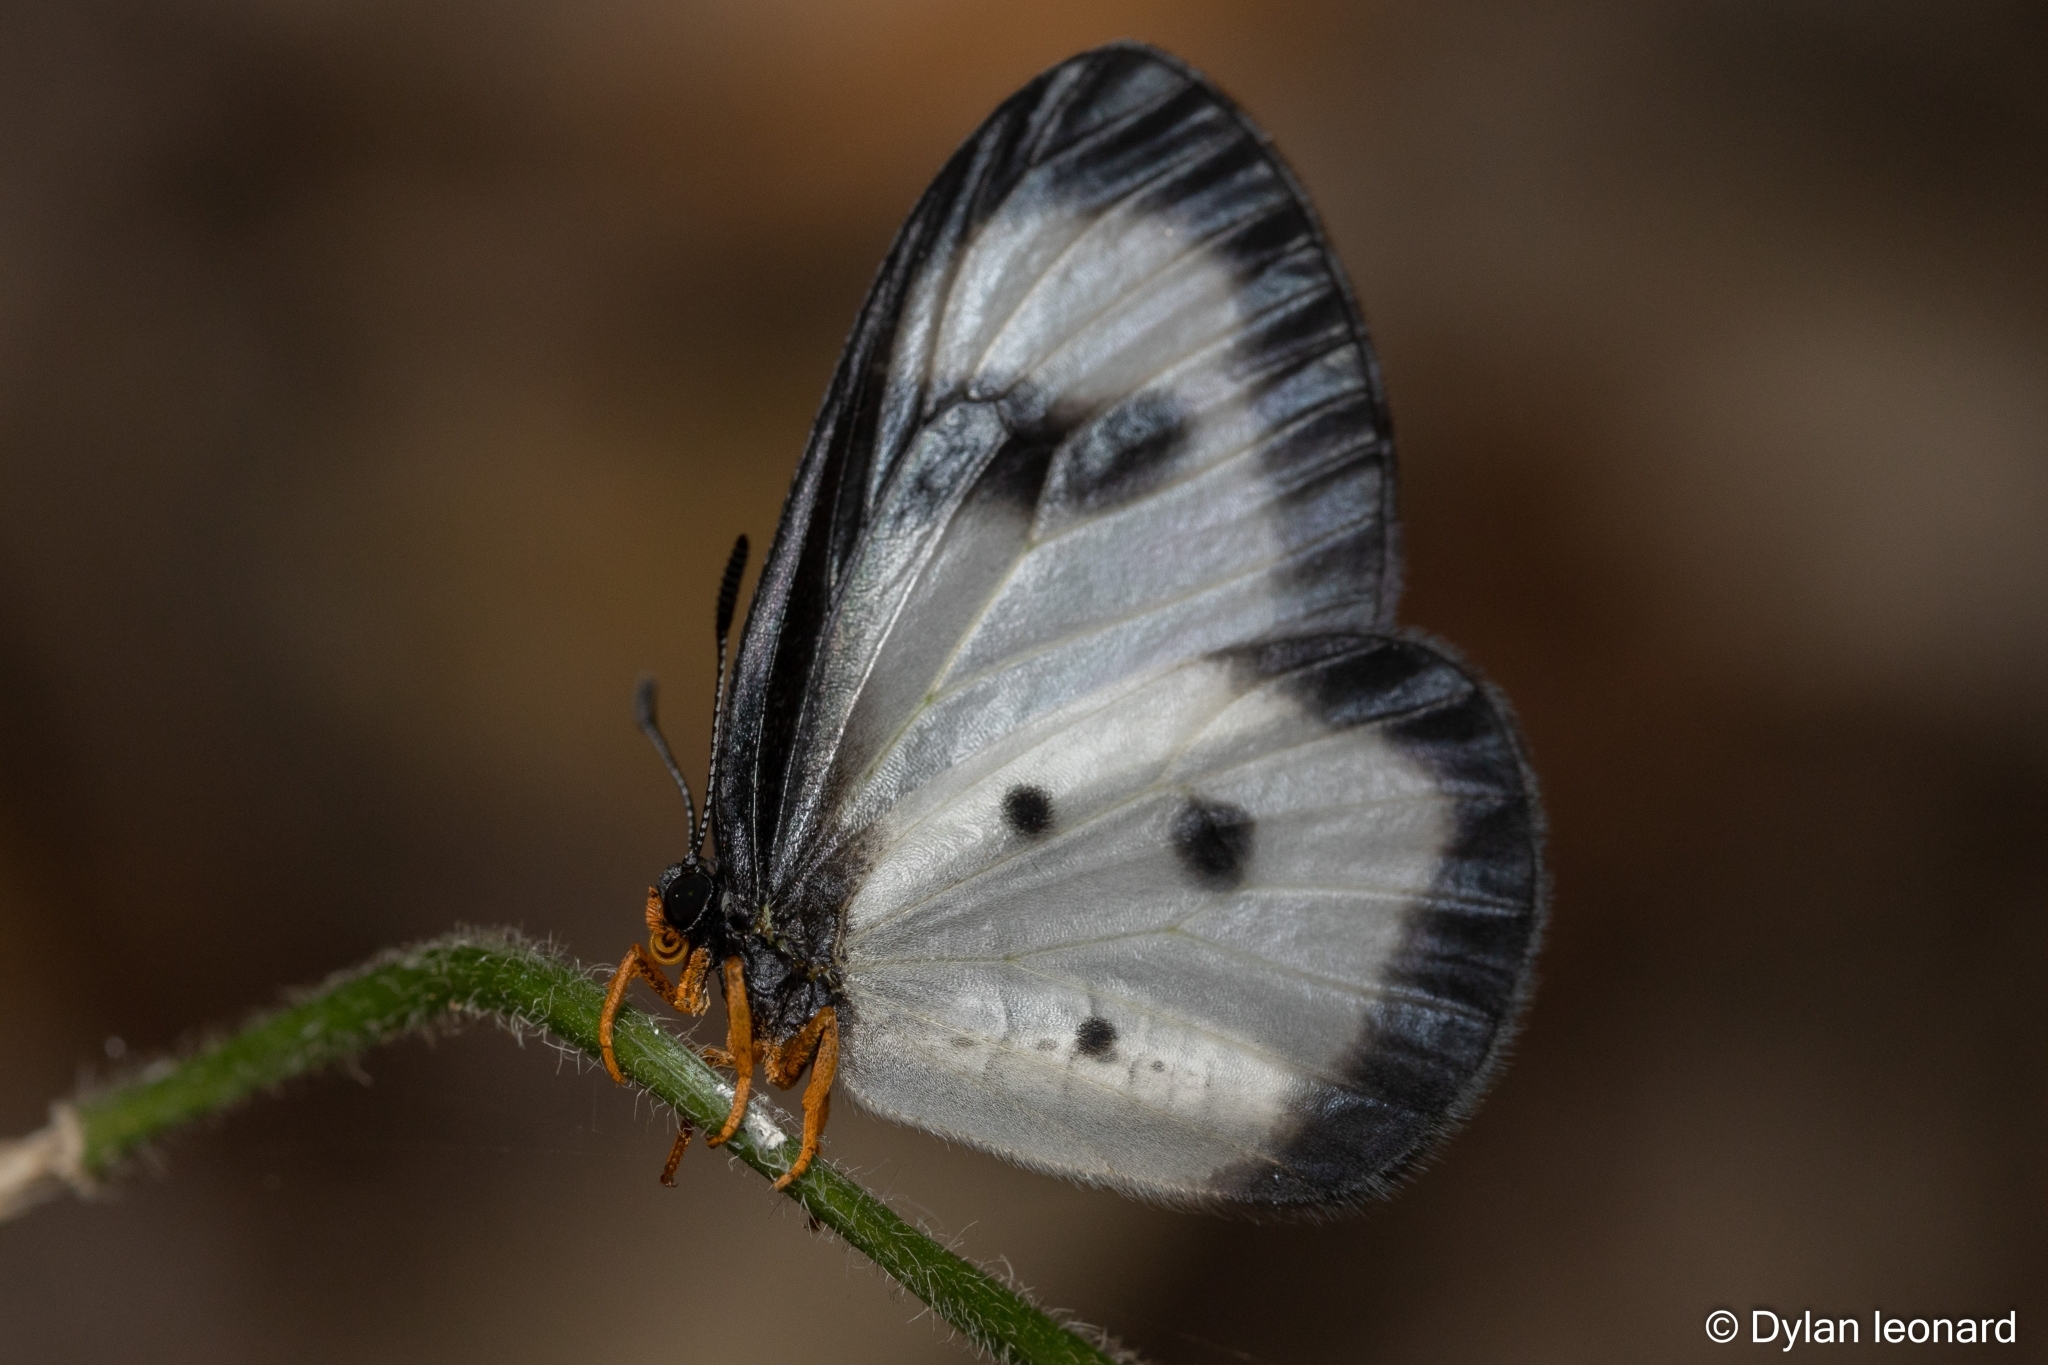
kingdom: Animalia
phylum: Arthropoda
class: Insecta
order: Lepidoptera
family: Lycaenidae
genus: Ornipholidotos
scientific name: Ornipholidotos peucetia
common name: Large glasswing
